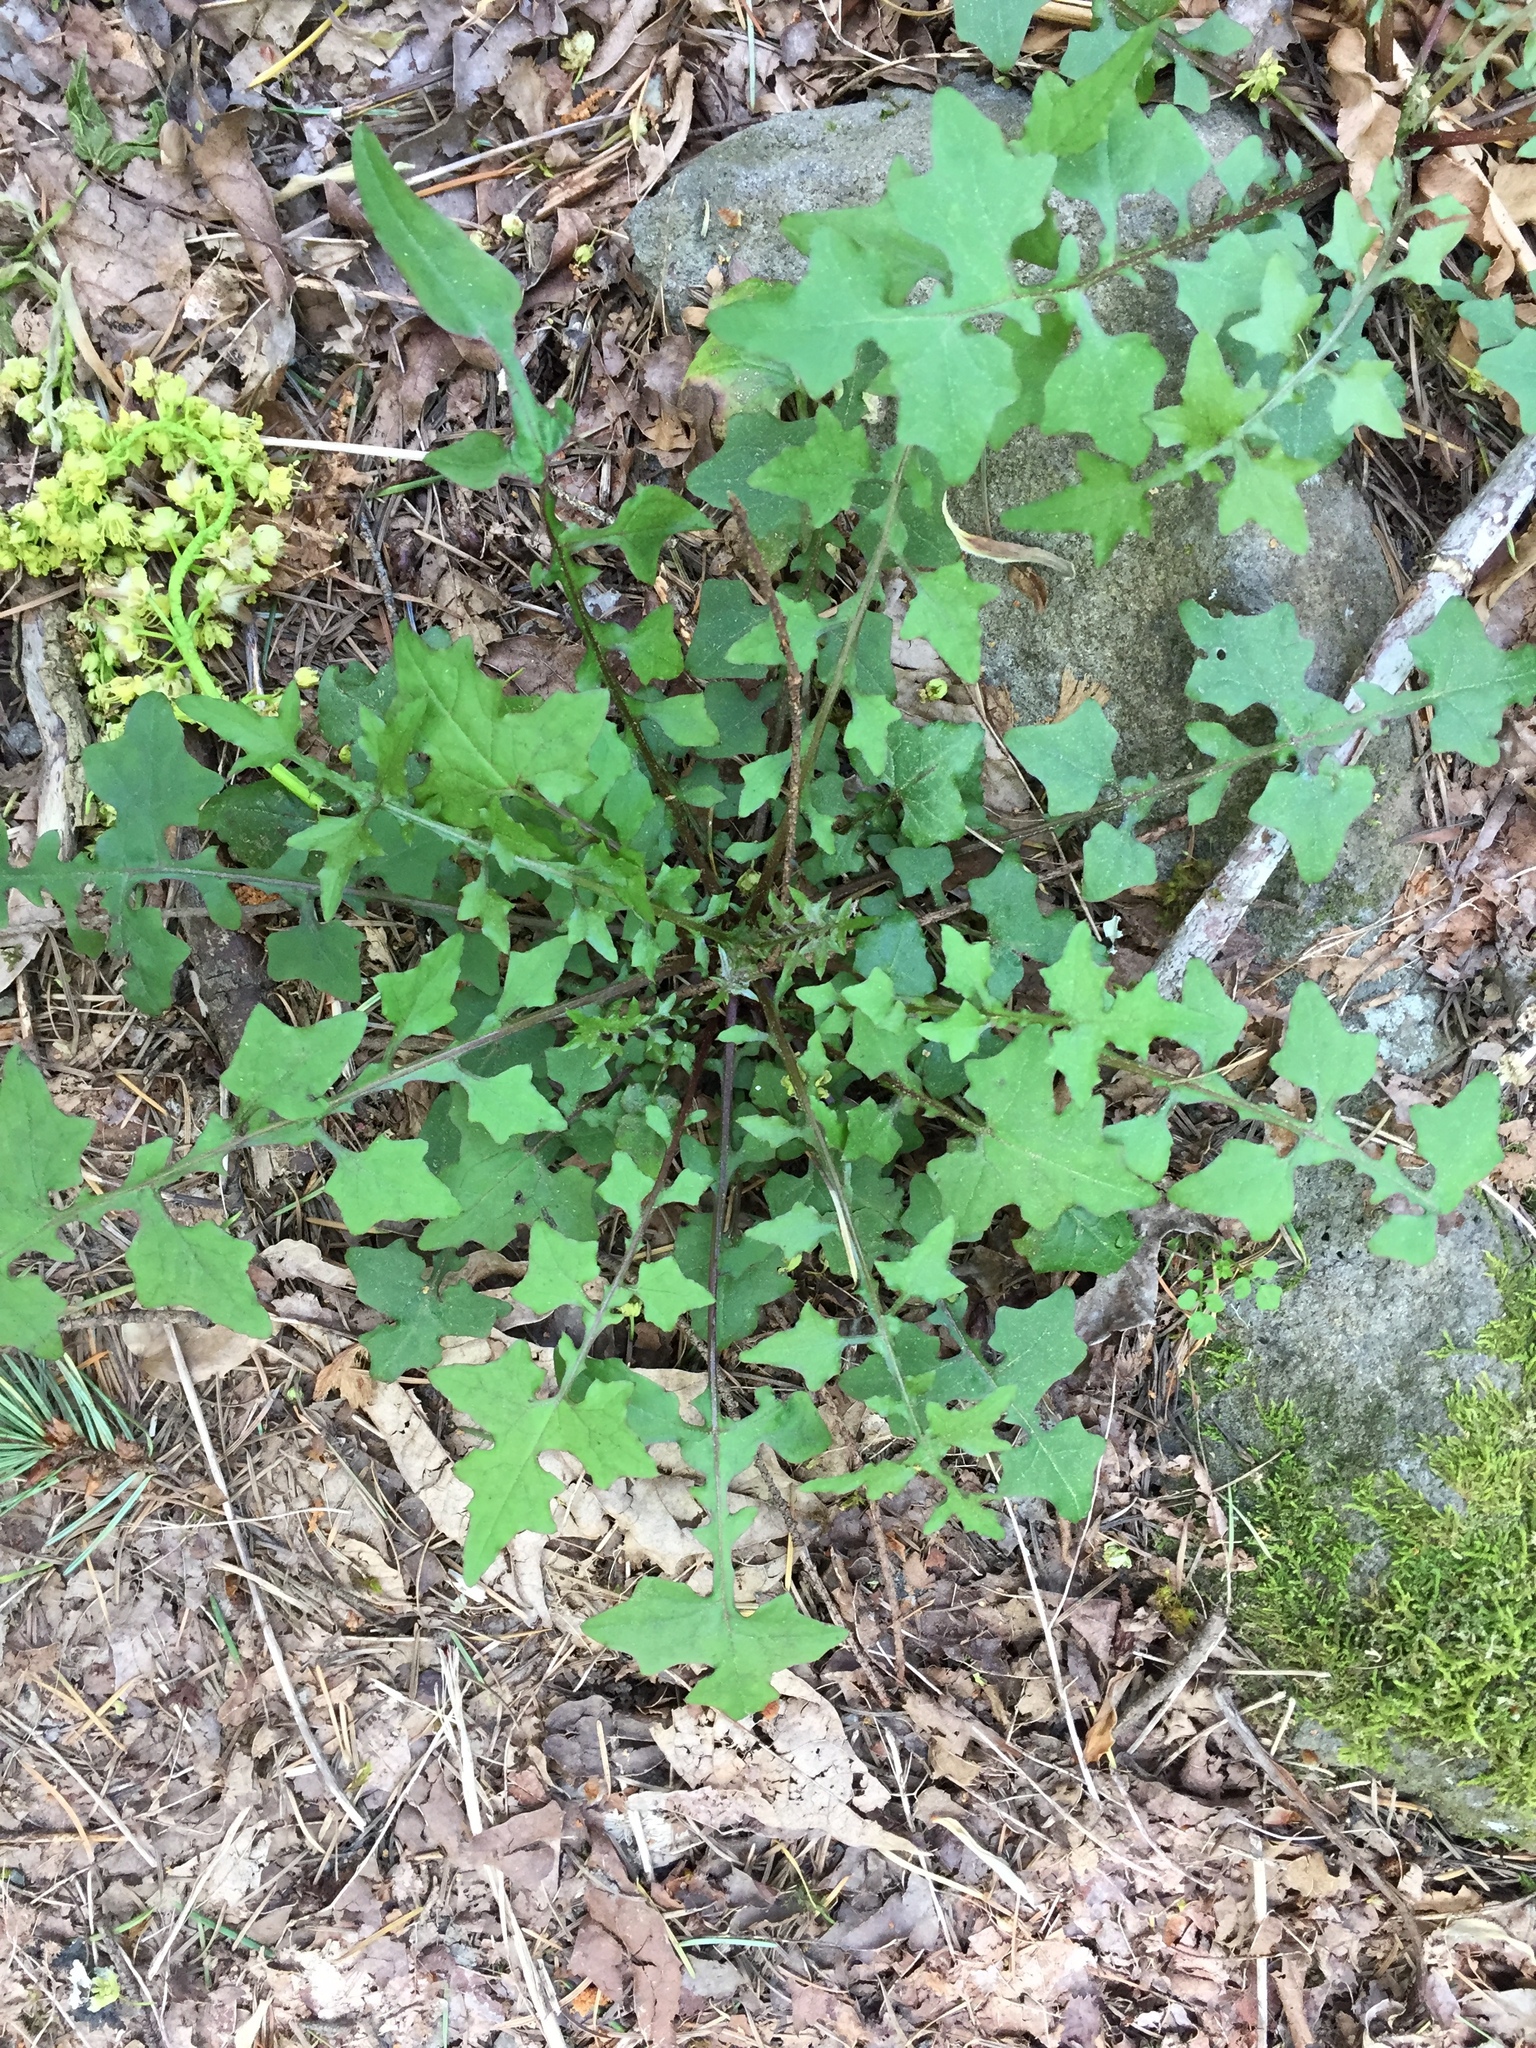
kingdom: Plantae
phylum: Tracheophyta
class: Magnoliopsida
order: Asterales
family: Asteraceae
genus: Mycelis
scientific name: Mycelis muralis
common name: Wall lettuce
